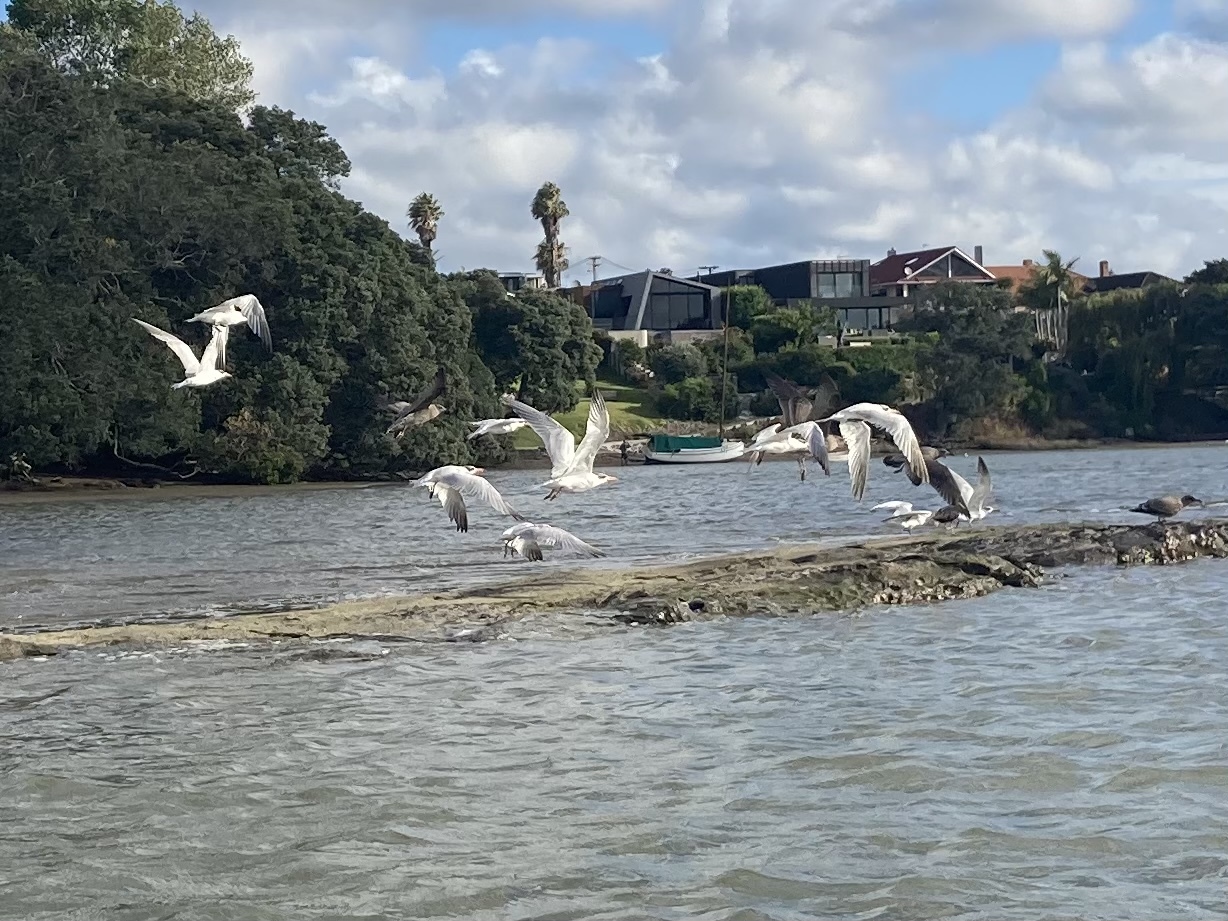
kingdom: Animalia
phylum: Chordata
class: Aves
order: Charadriiformes
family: Laridae
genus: Hydroprogne
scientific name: Hydroprogne caspia
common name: Caspian tern
